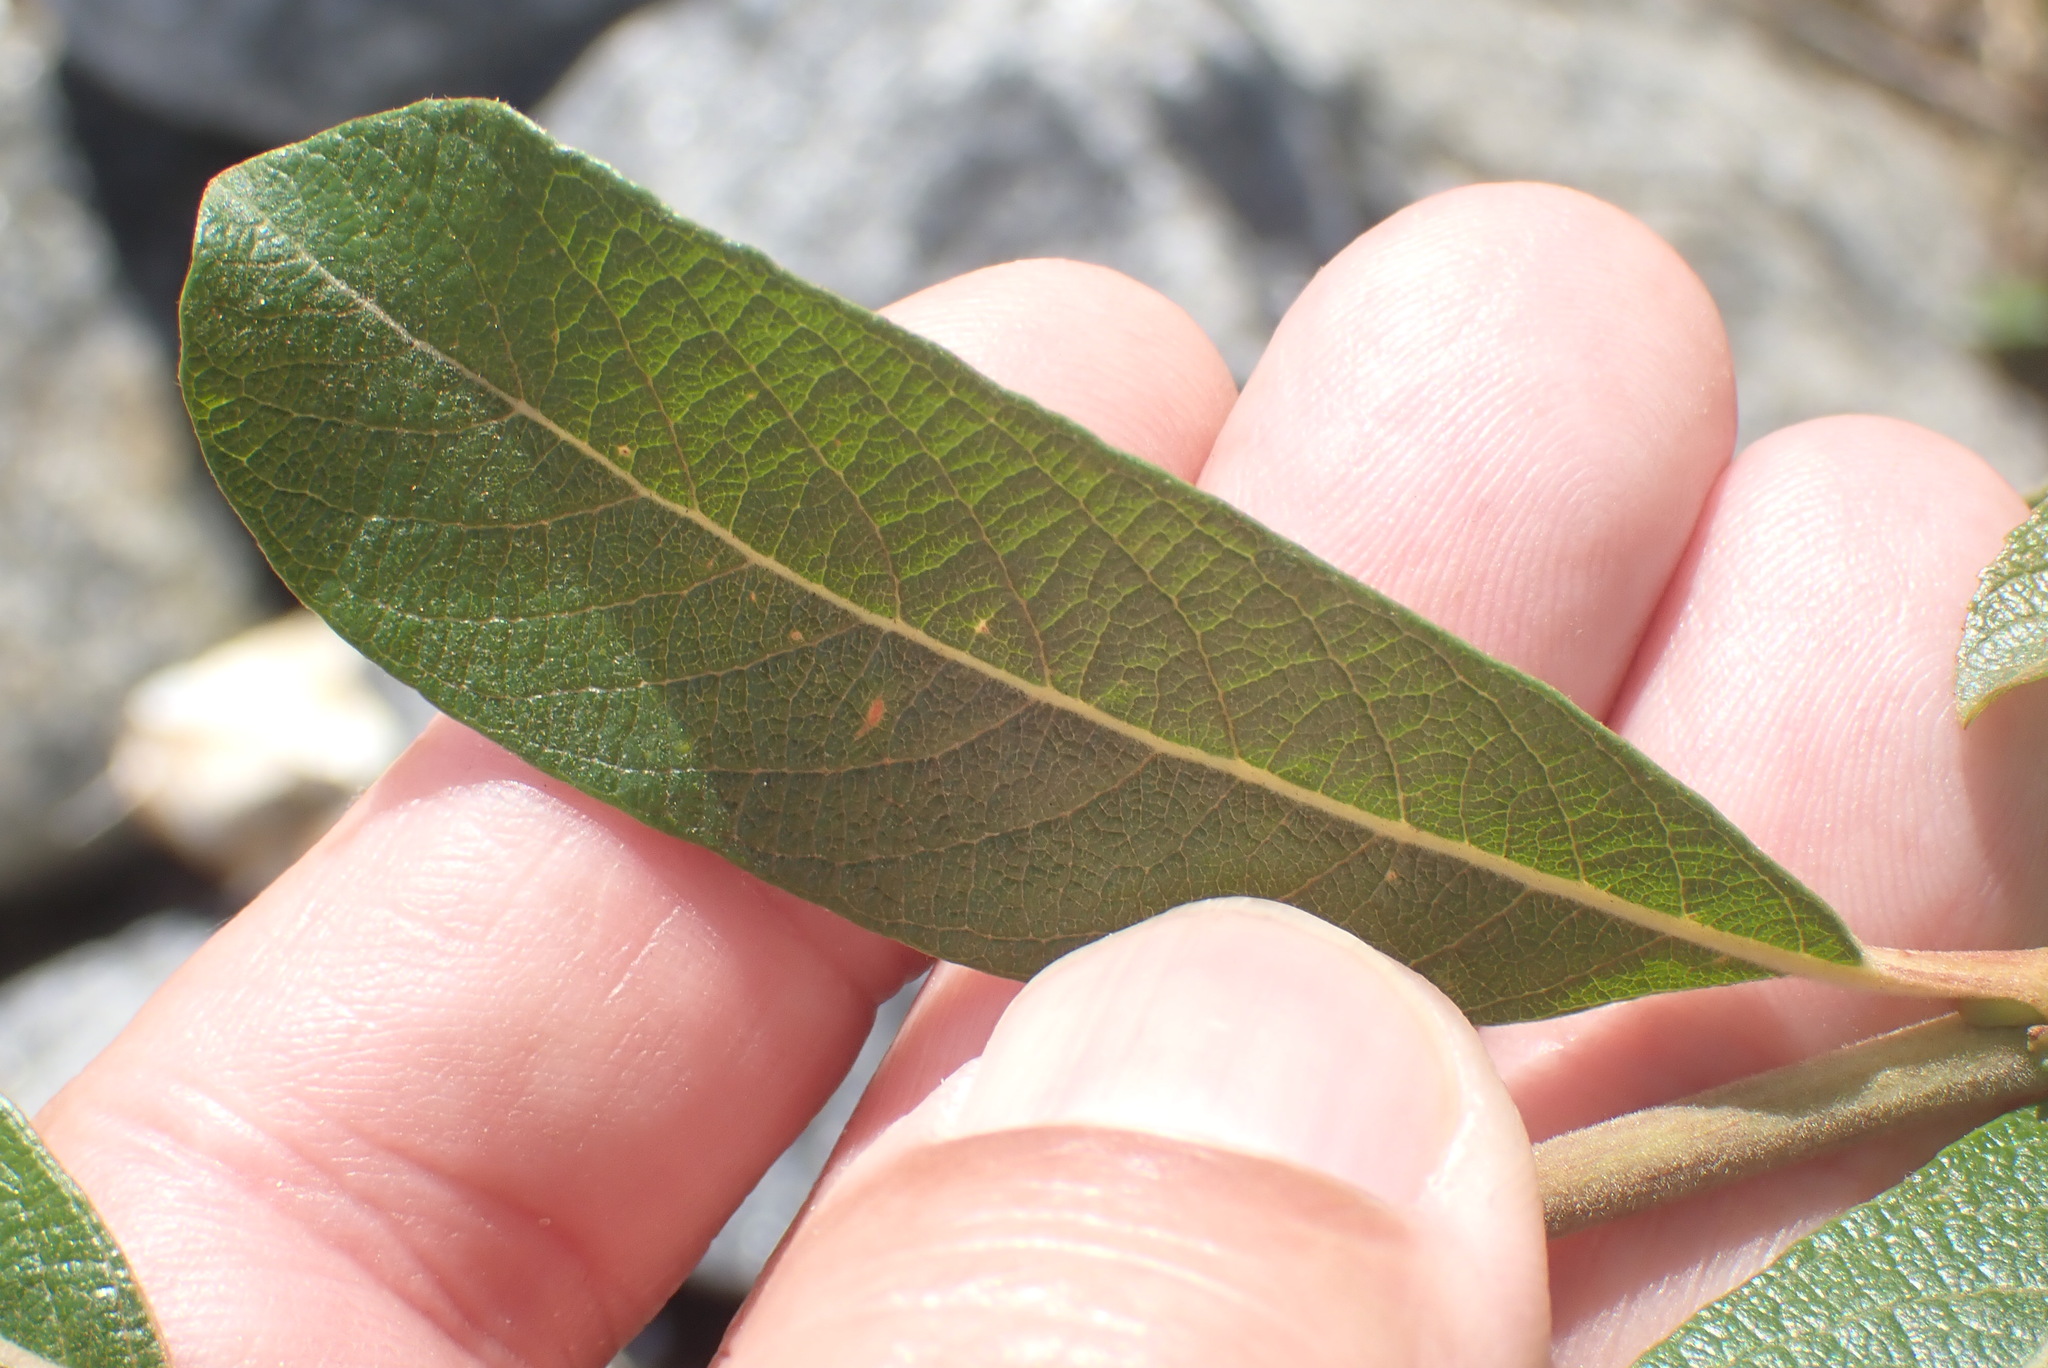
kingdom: Plantae
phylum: Tracheophyta
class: Magnoliopsida
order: Malpighiales
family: Salicaceae
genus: Salix
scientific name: Salix cinerea
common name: Common sallow
